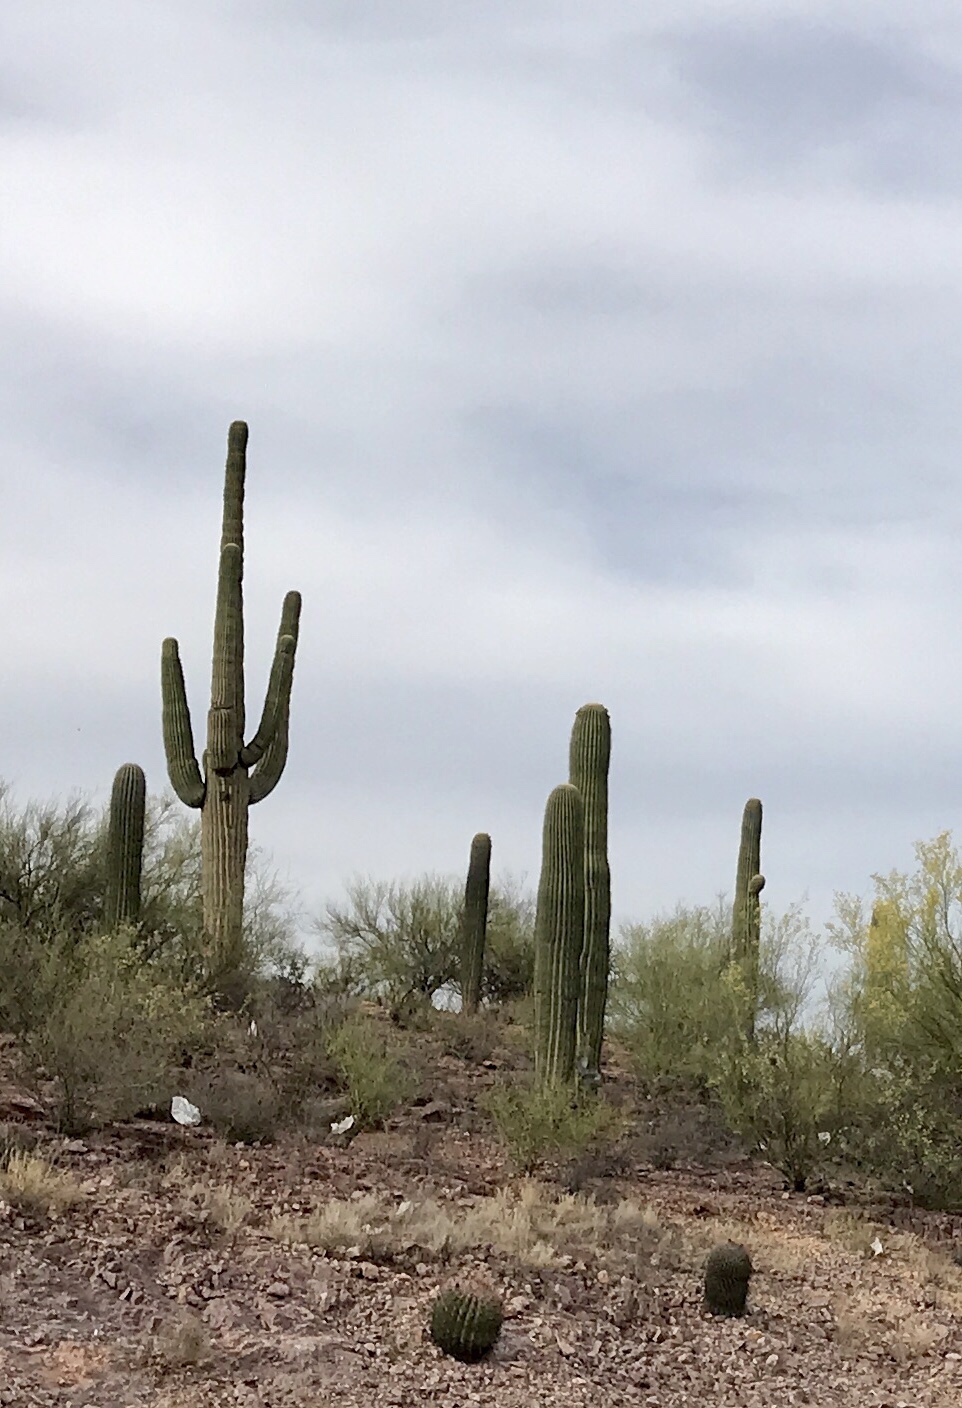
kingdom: Plantae
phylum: Tracheophyta
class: Magnoliopsida
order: Caryophyllales
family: Cactaceae
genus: Carnegiea
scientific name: Carnegiea gigantea
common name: Saguaro
